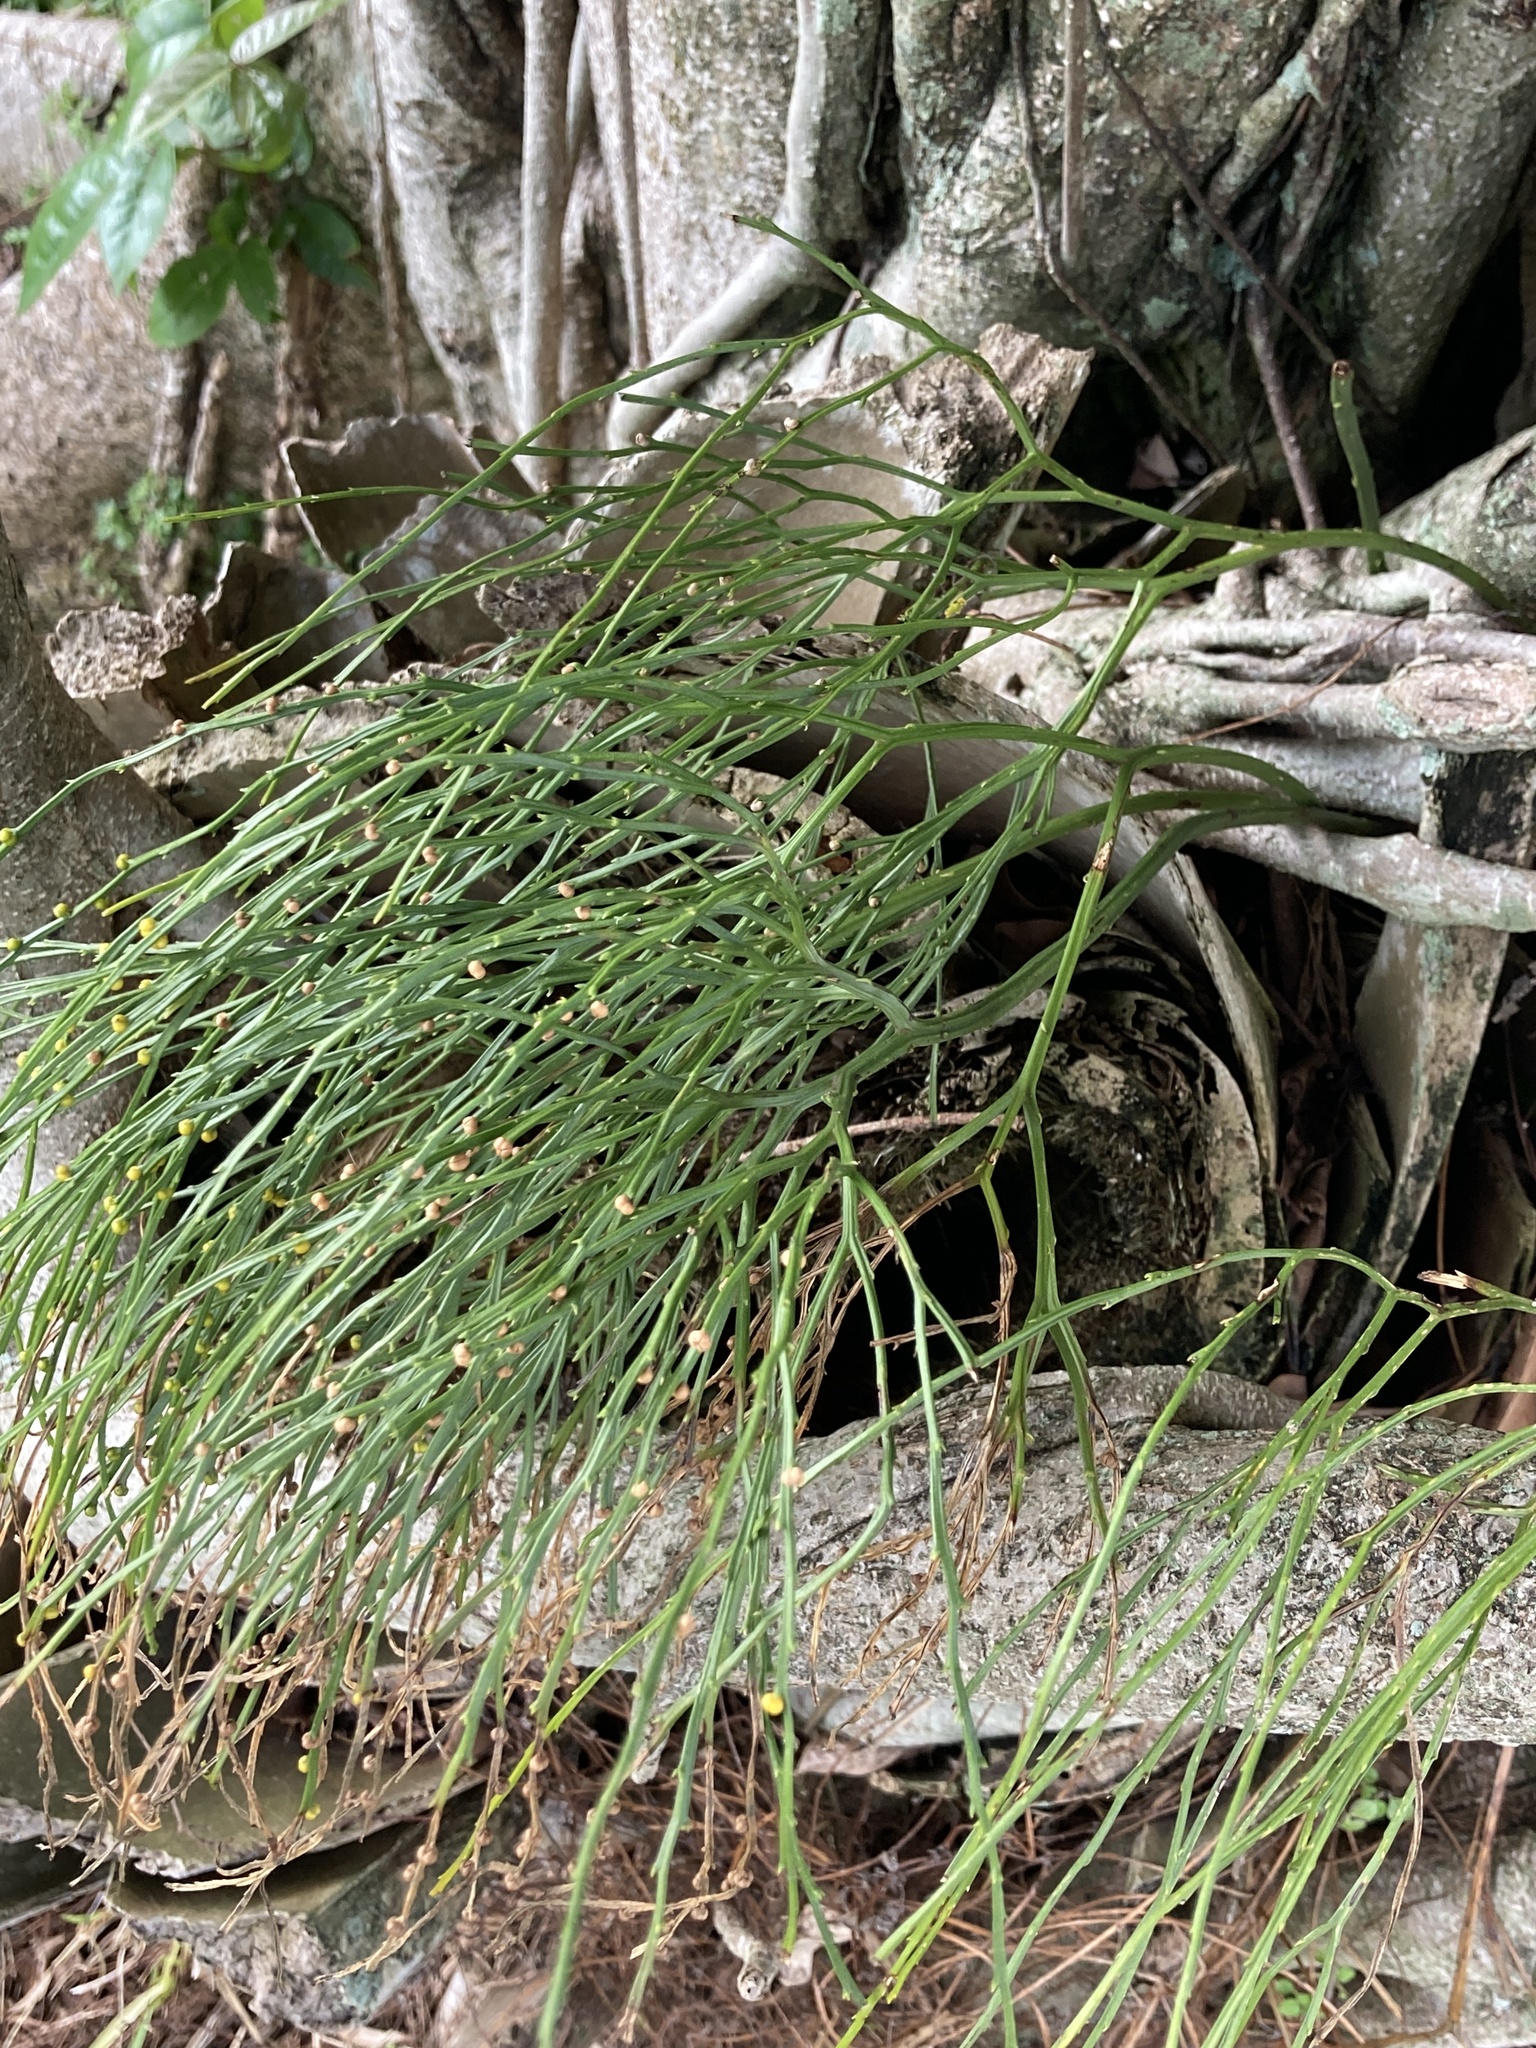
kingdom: Plantae
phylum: Tracheophyta
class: Polypodiopsida
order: Psilotales
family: Psilotaceae
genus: Psilotum
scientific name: Psilotum nudum
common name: Skeleton fork fern
